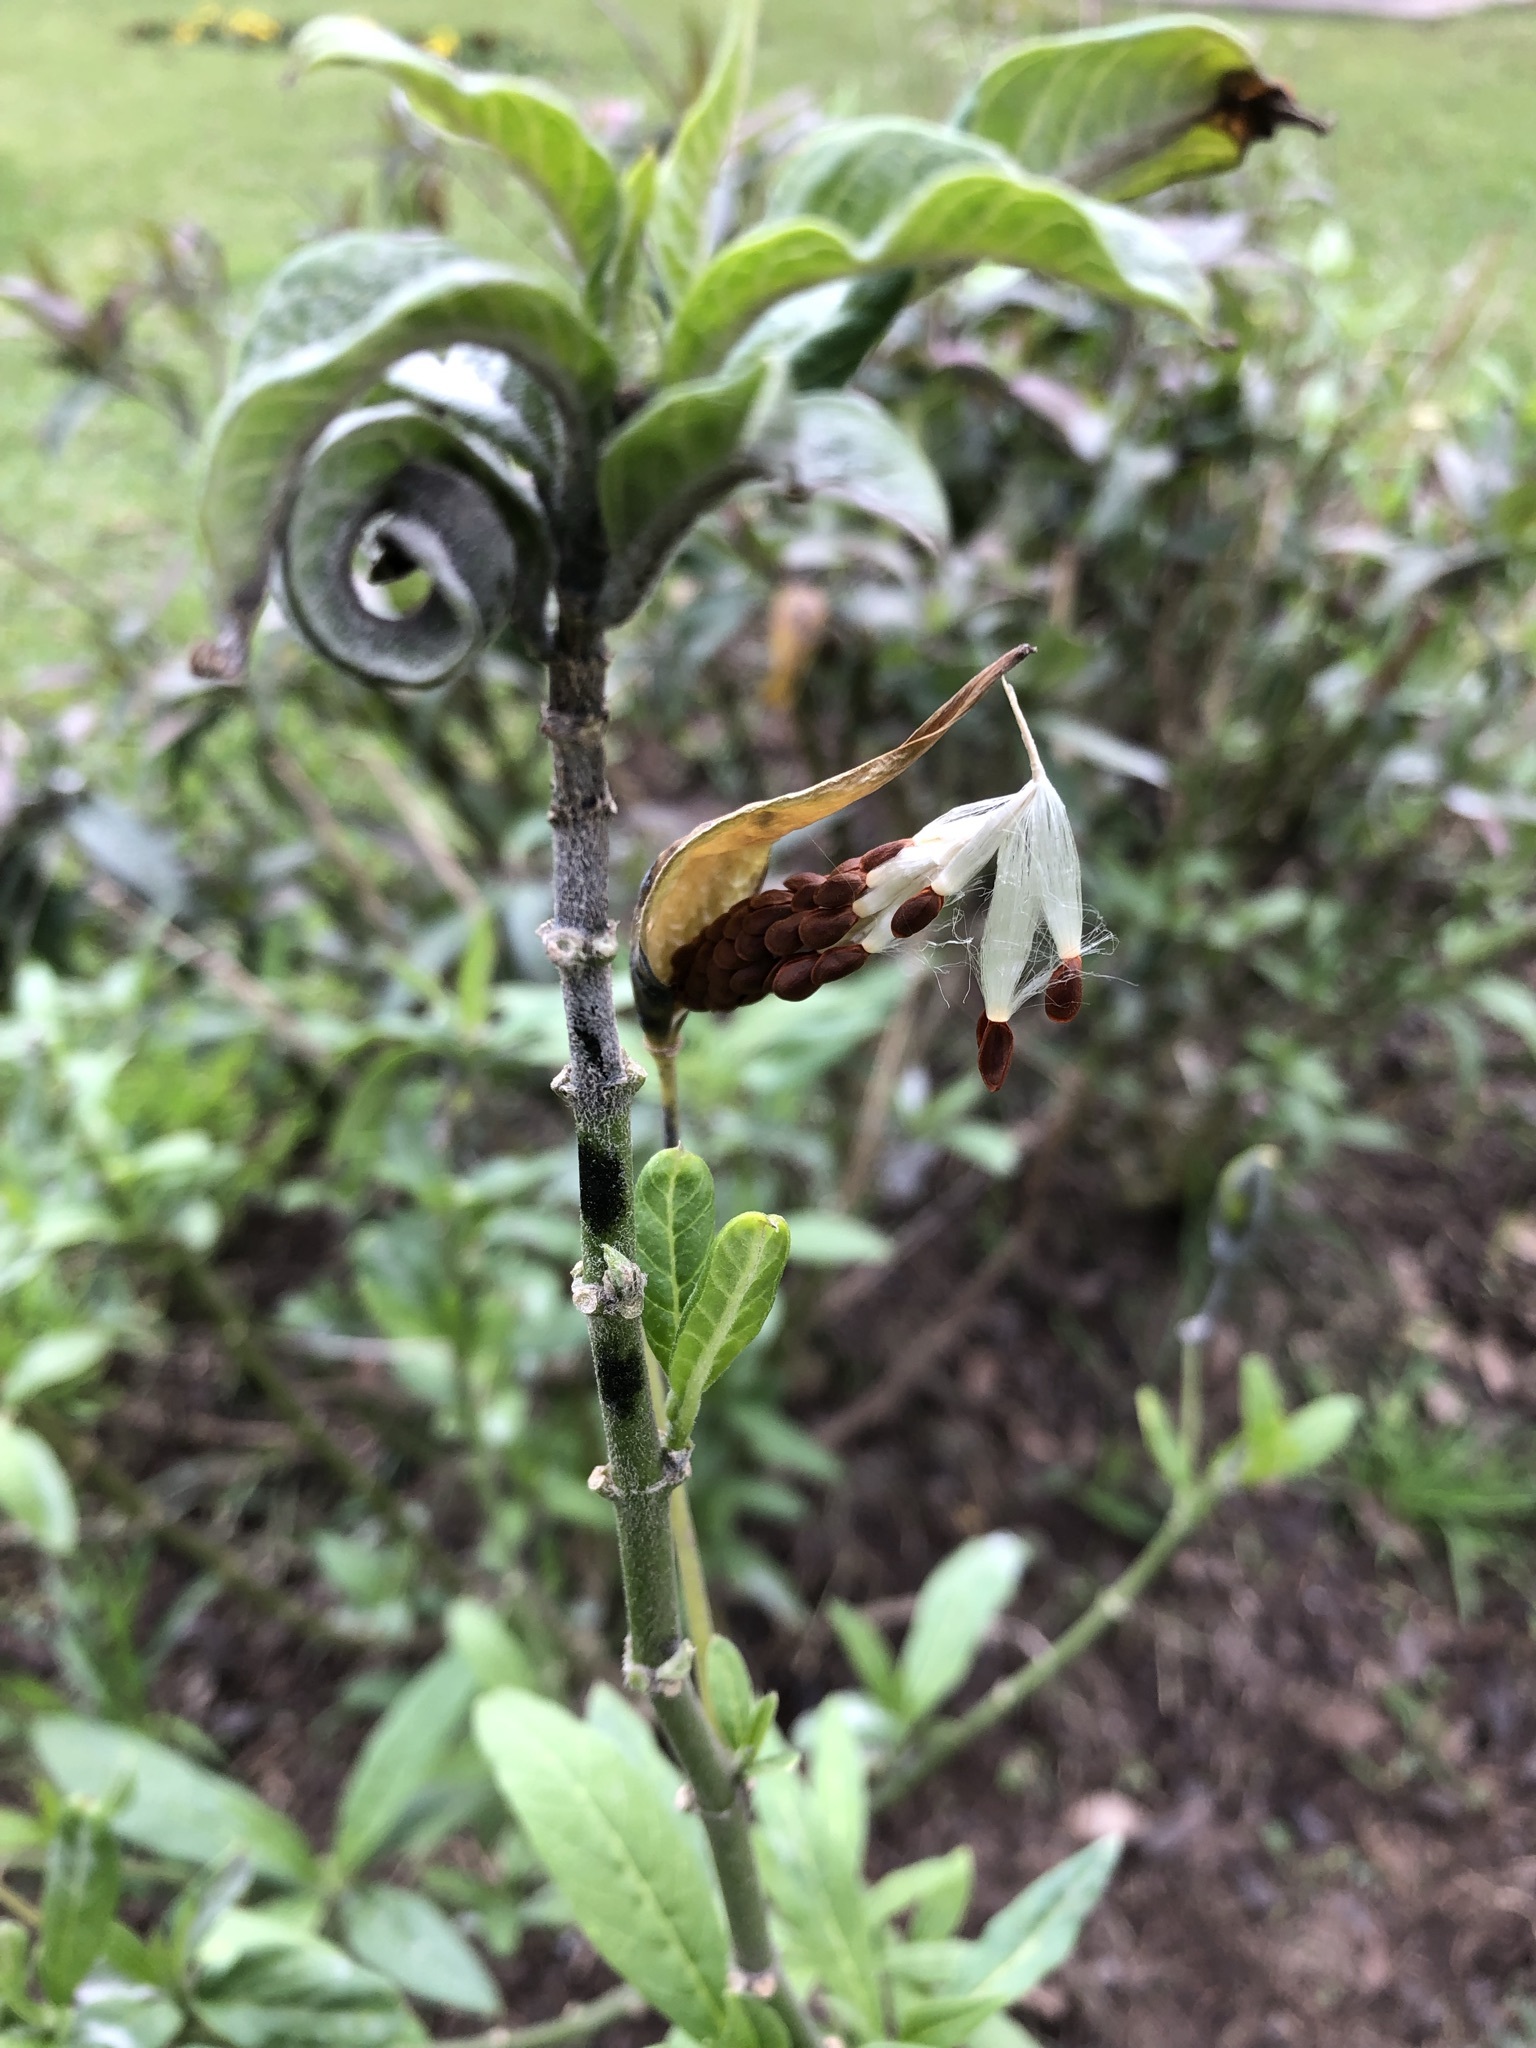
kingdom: Plantae
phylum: Tracheophyta
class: Magnoliopsida
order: Gentianales
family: Apocynaceae
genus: Asclepias
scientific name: Asclepias curassavica
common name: Bloodflower
